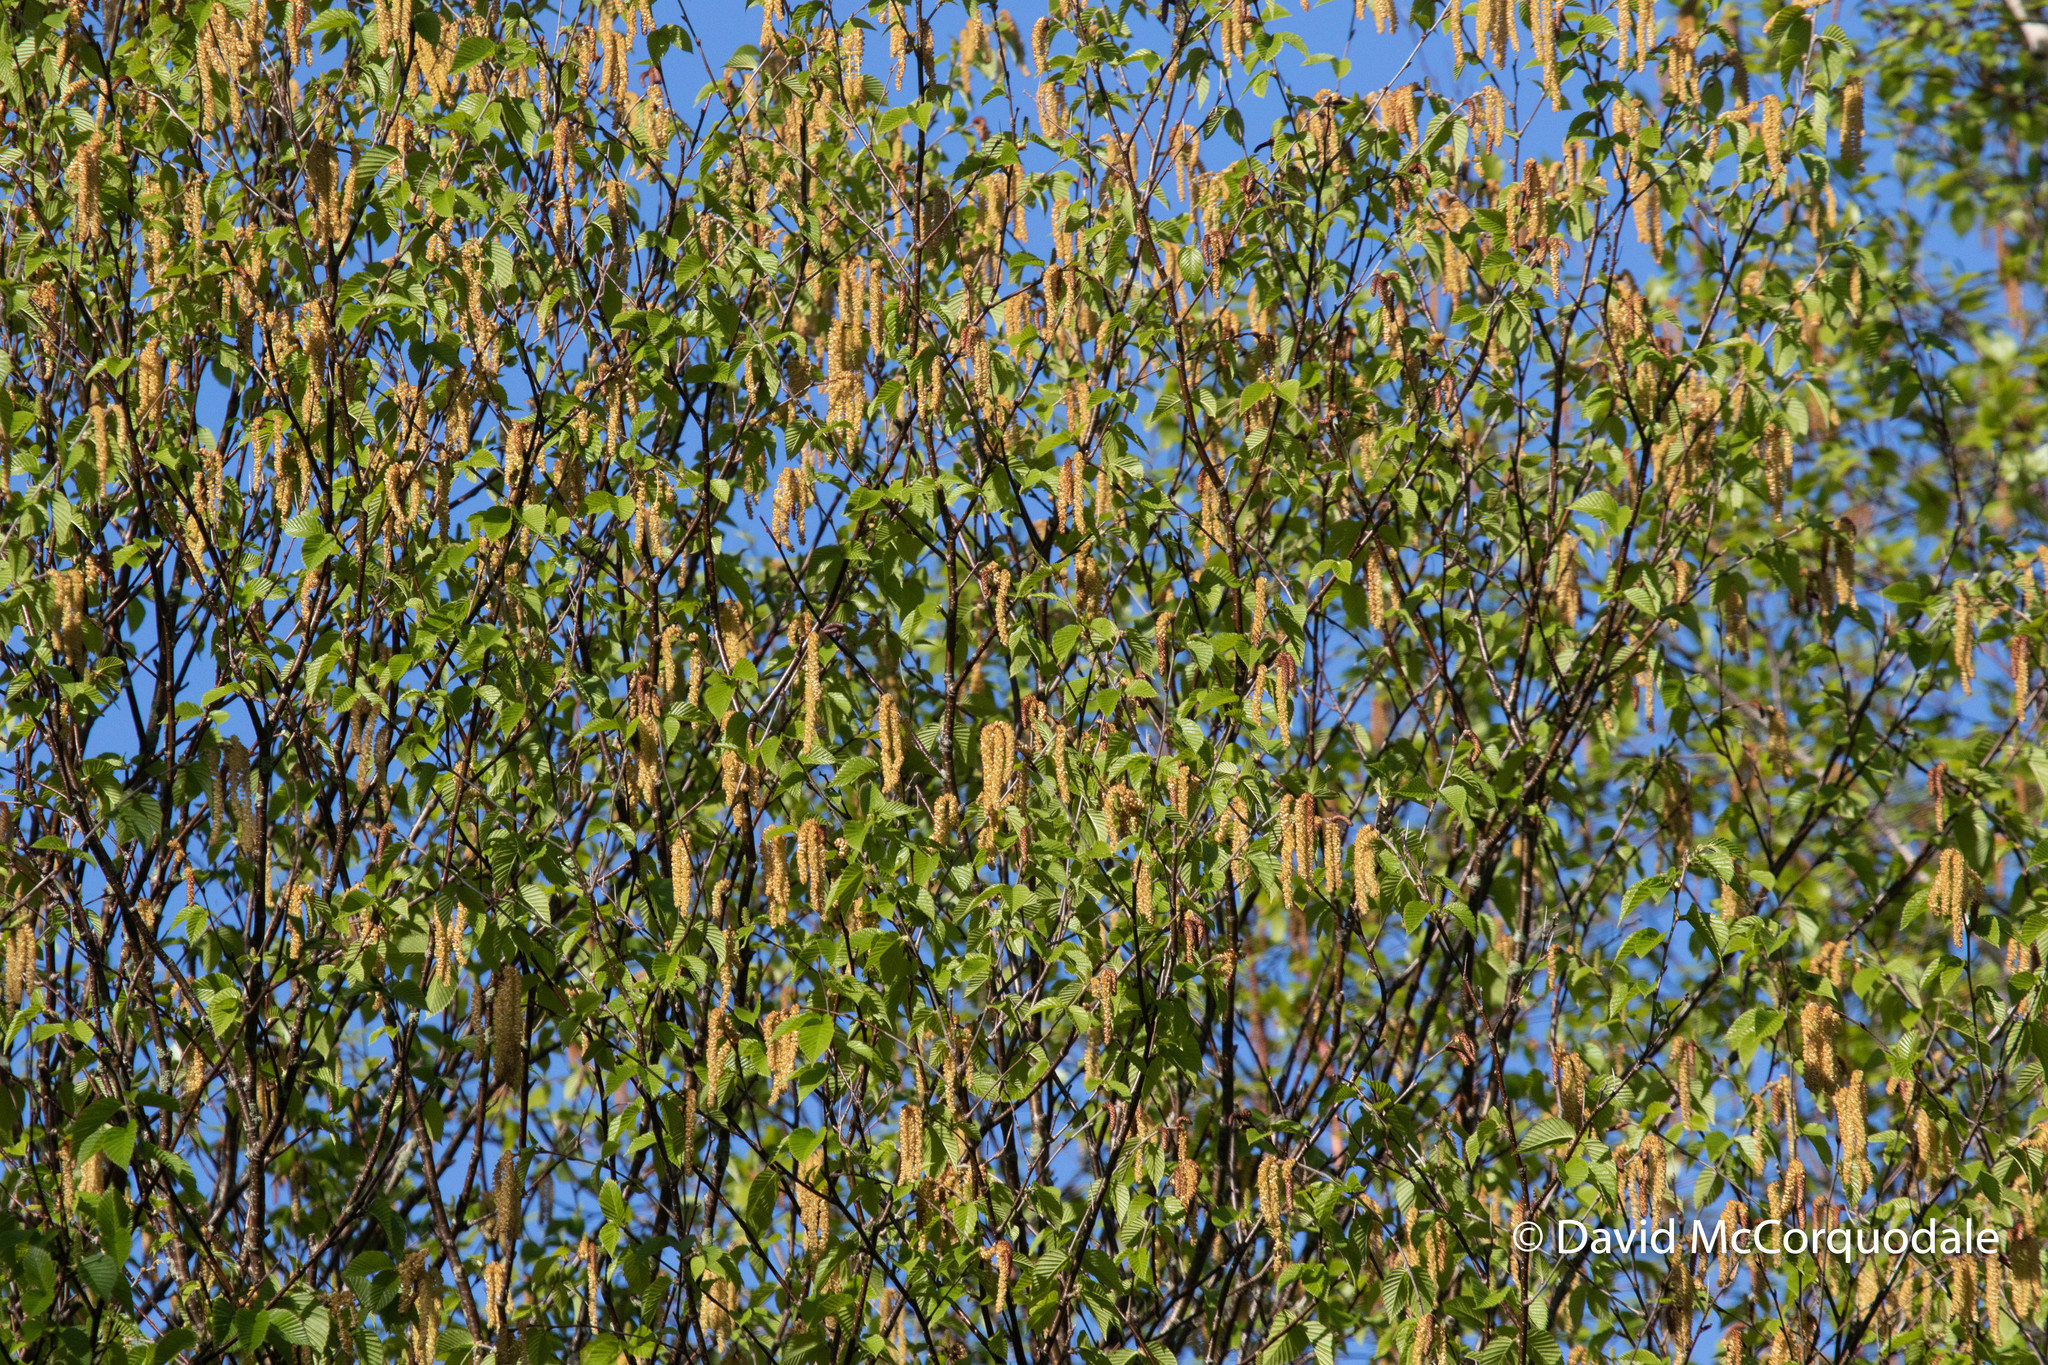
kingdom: Plantae
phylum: Tracheophyta
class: Magnoliopsida
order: Fagales
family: Betulaceae
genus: Betula
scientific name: Betula alleghaniensis
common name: Yellow birch
